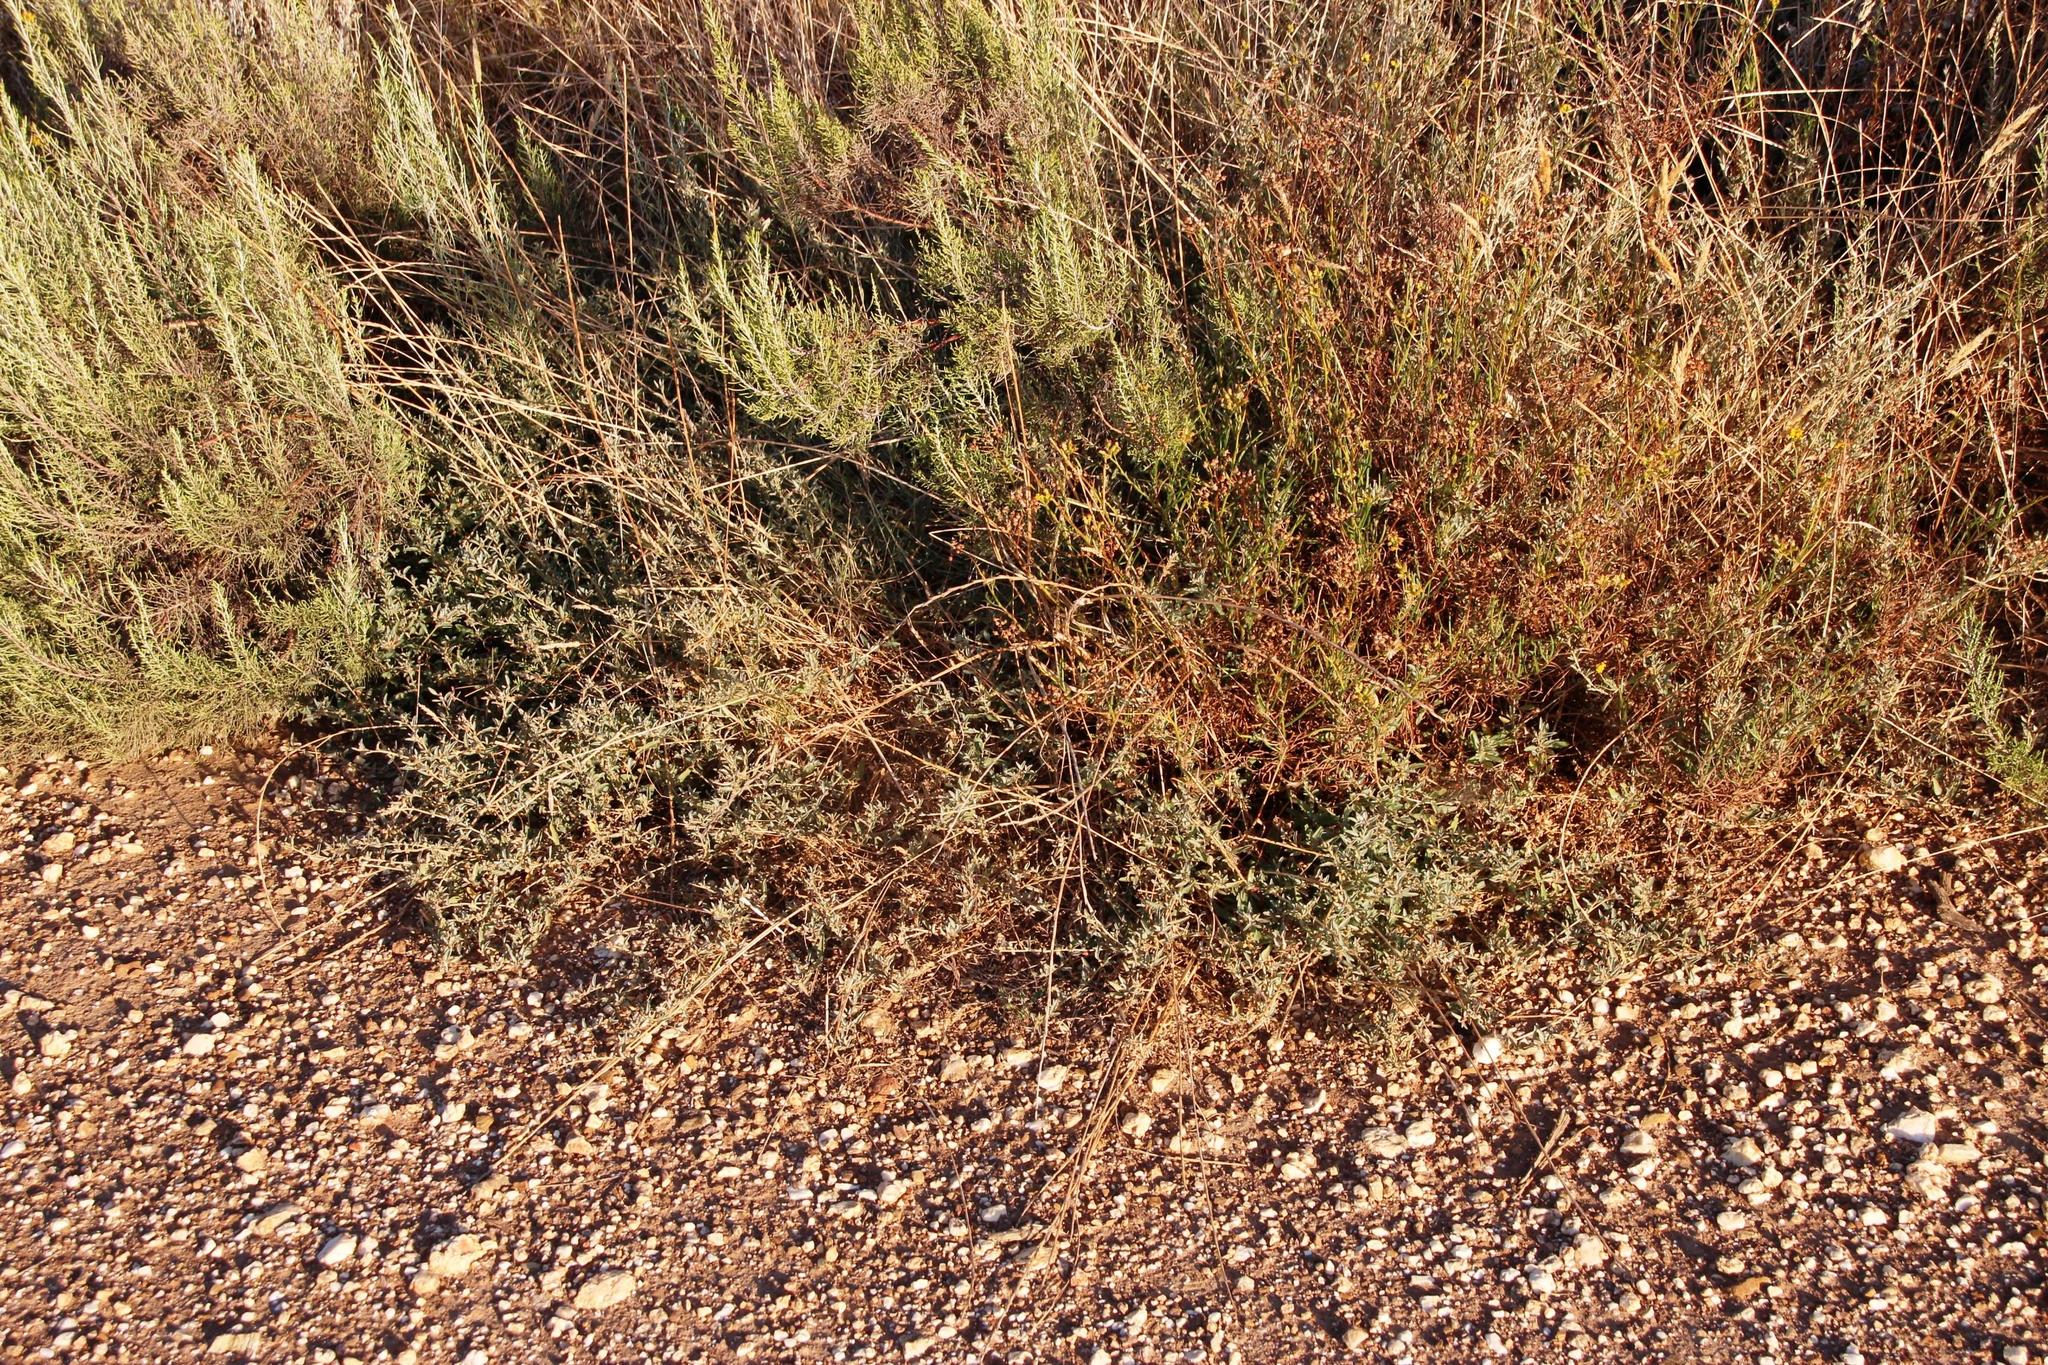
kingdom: Plantae
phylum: Tracheophyta
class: Magnoliopsida
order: Caryophyllales
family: Amaranthaceae
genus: Atriplex
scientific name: Atriplex semibaccata
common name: Australian saltbush
